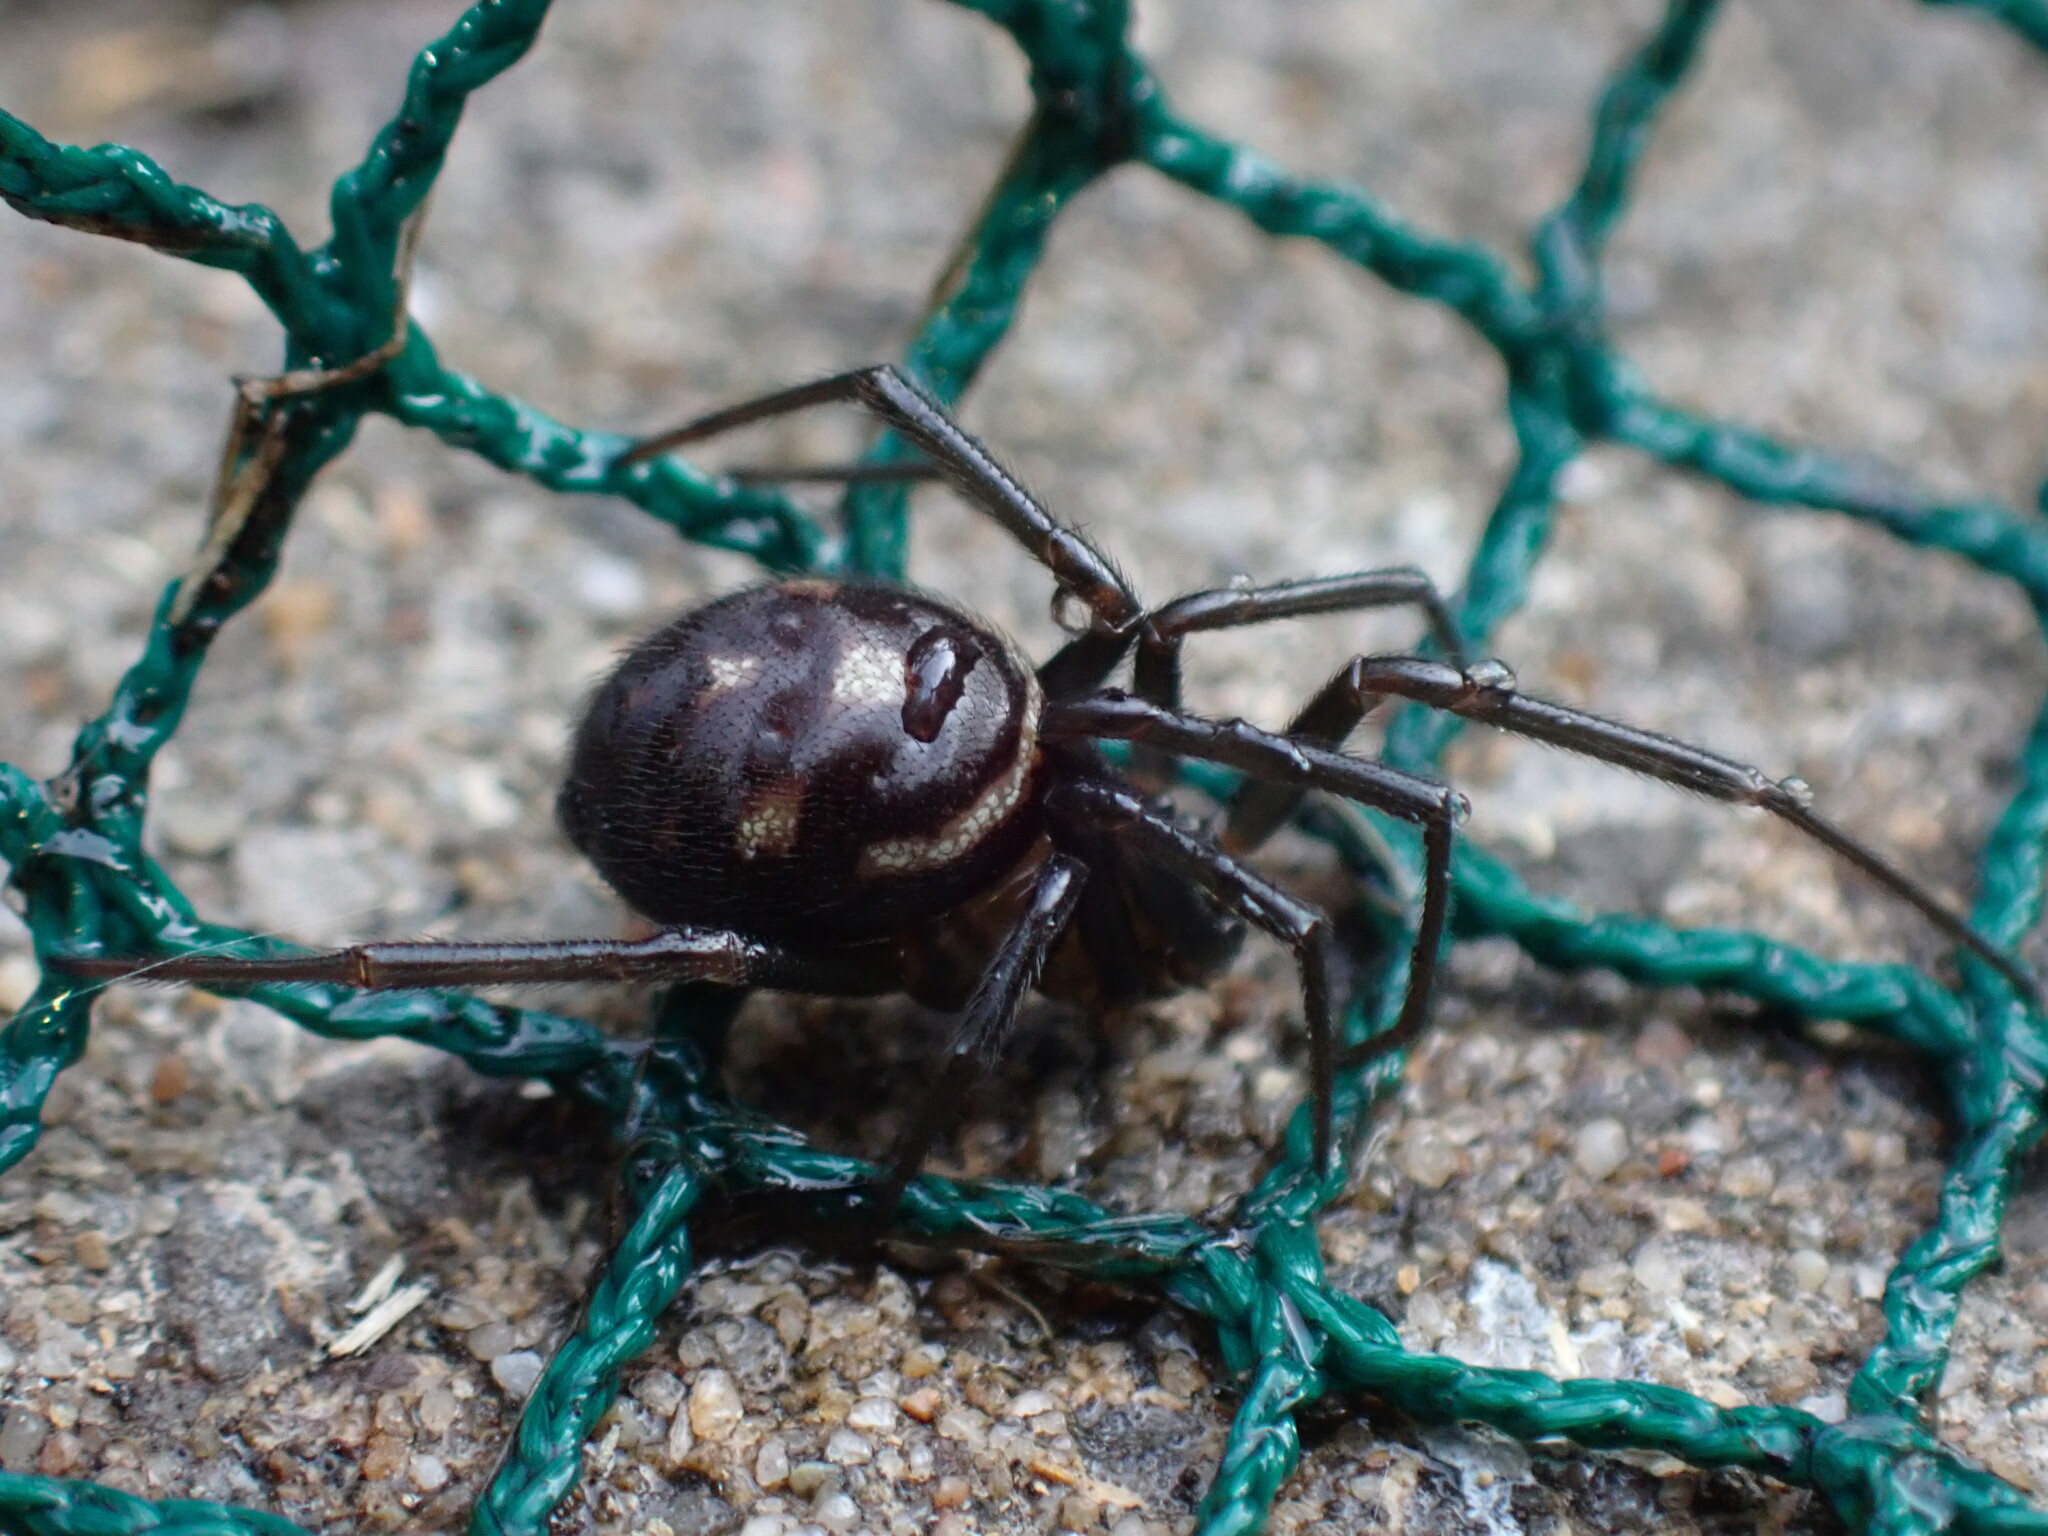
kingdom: Animalia
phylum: Arthropoda
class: Arachnida
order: Araneae
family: Theridiidae
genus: Steatoda
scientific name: Steatoda grossa
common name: False black widow
